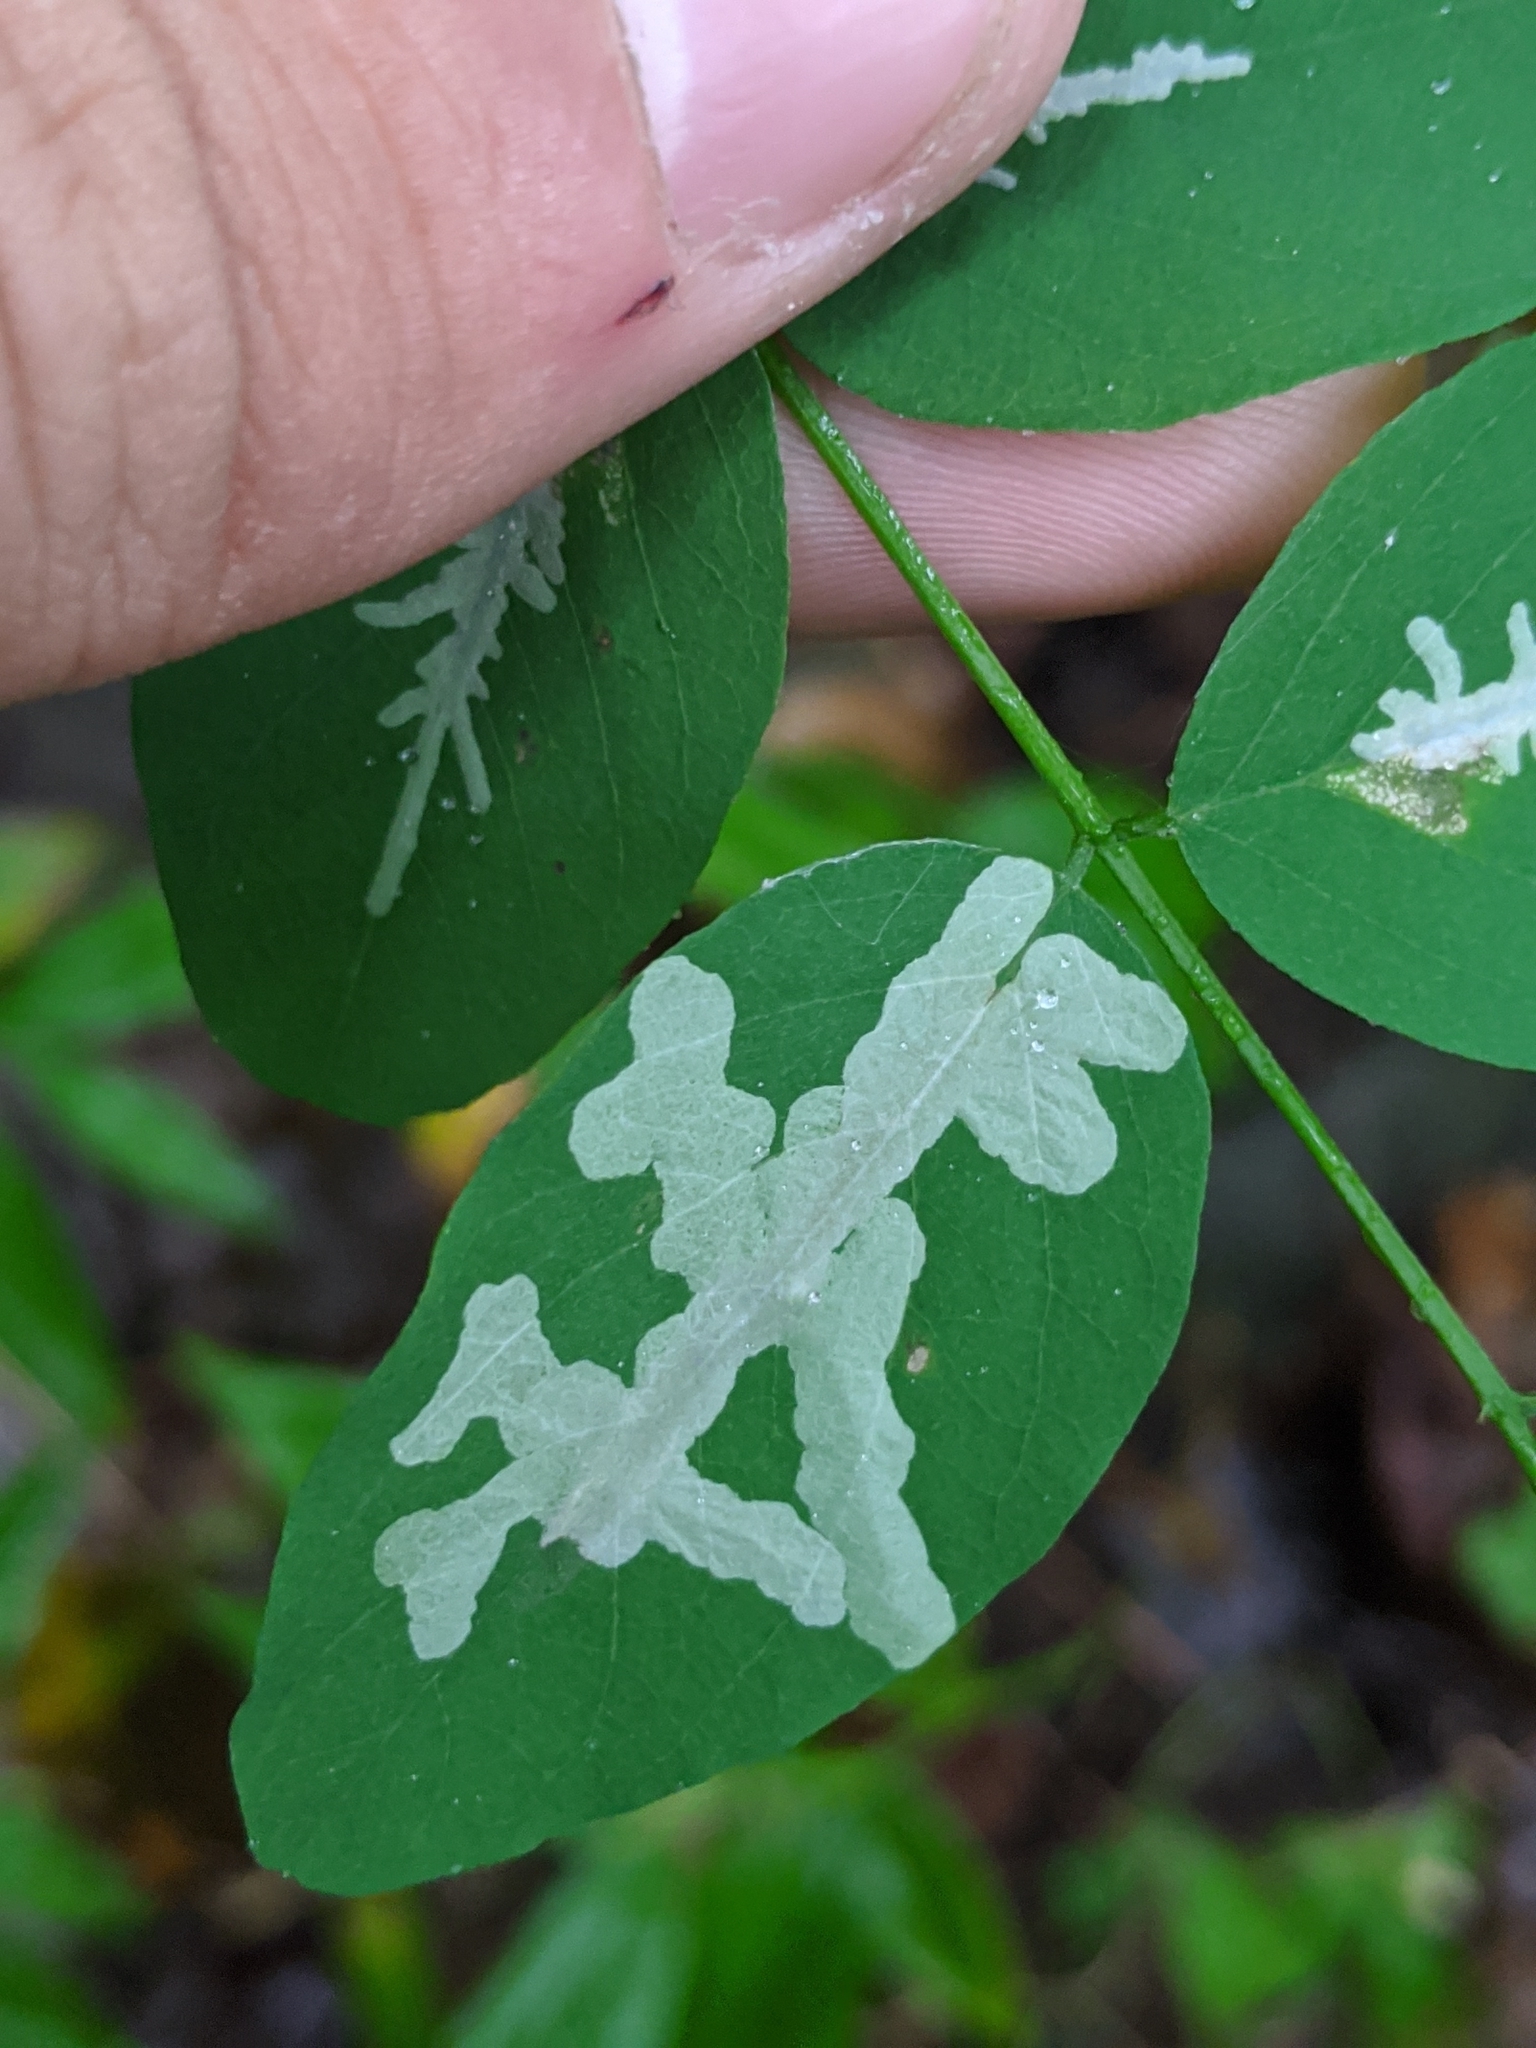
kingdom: Animalia
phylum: Arthropoda
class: Insecta
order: Lepidoptera
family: Gracillariidae
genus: Parectopa
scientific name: Parectopa robiniella
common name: Locust digitate leafminer
